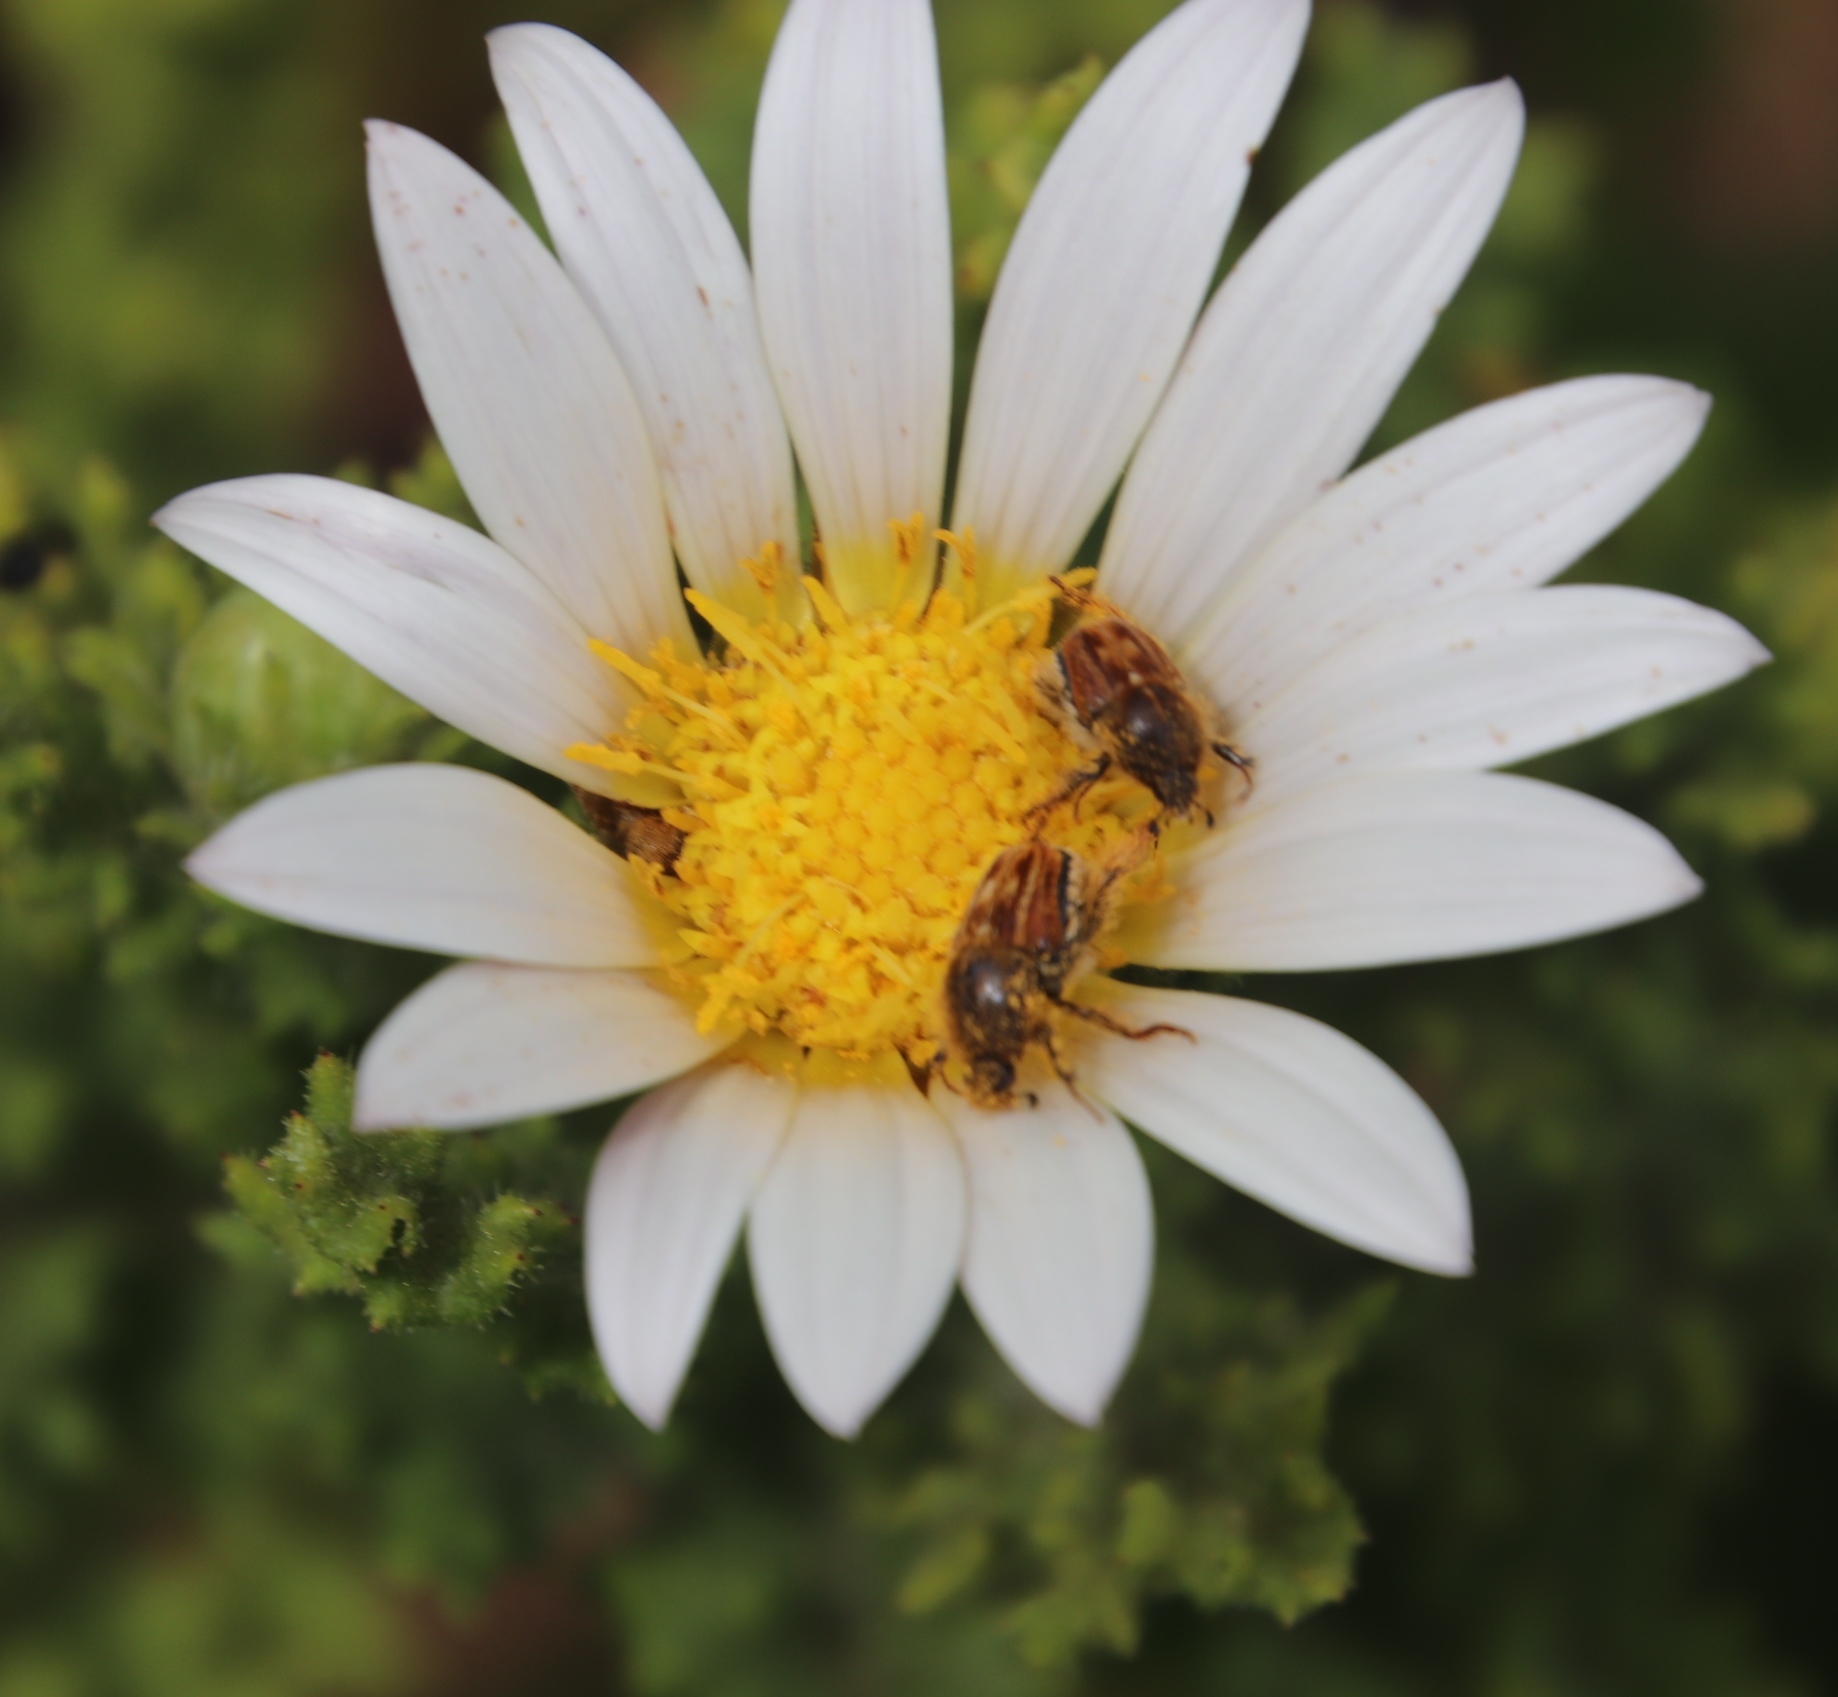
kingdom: Plantae
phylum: Tracheophyta
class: Magnoliopsida
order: Asterales
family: Asteraceae
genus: Arctotis
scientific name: Arctotis aspera
